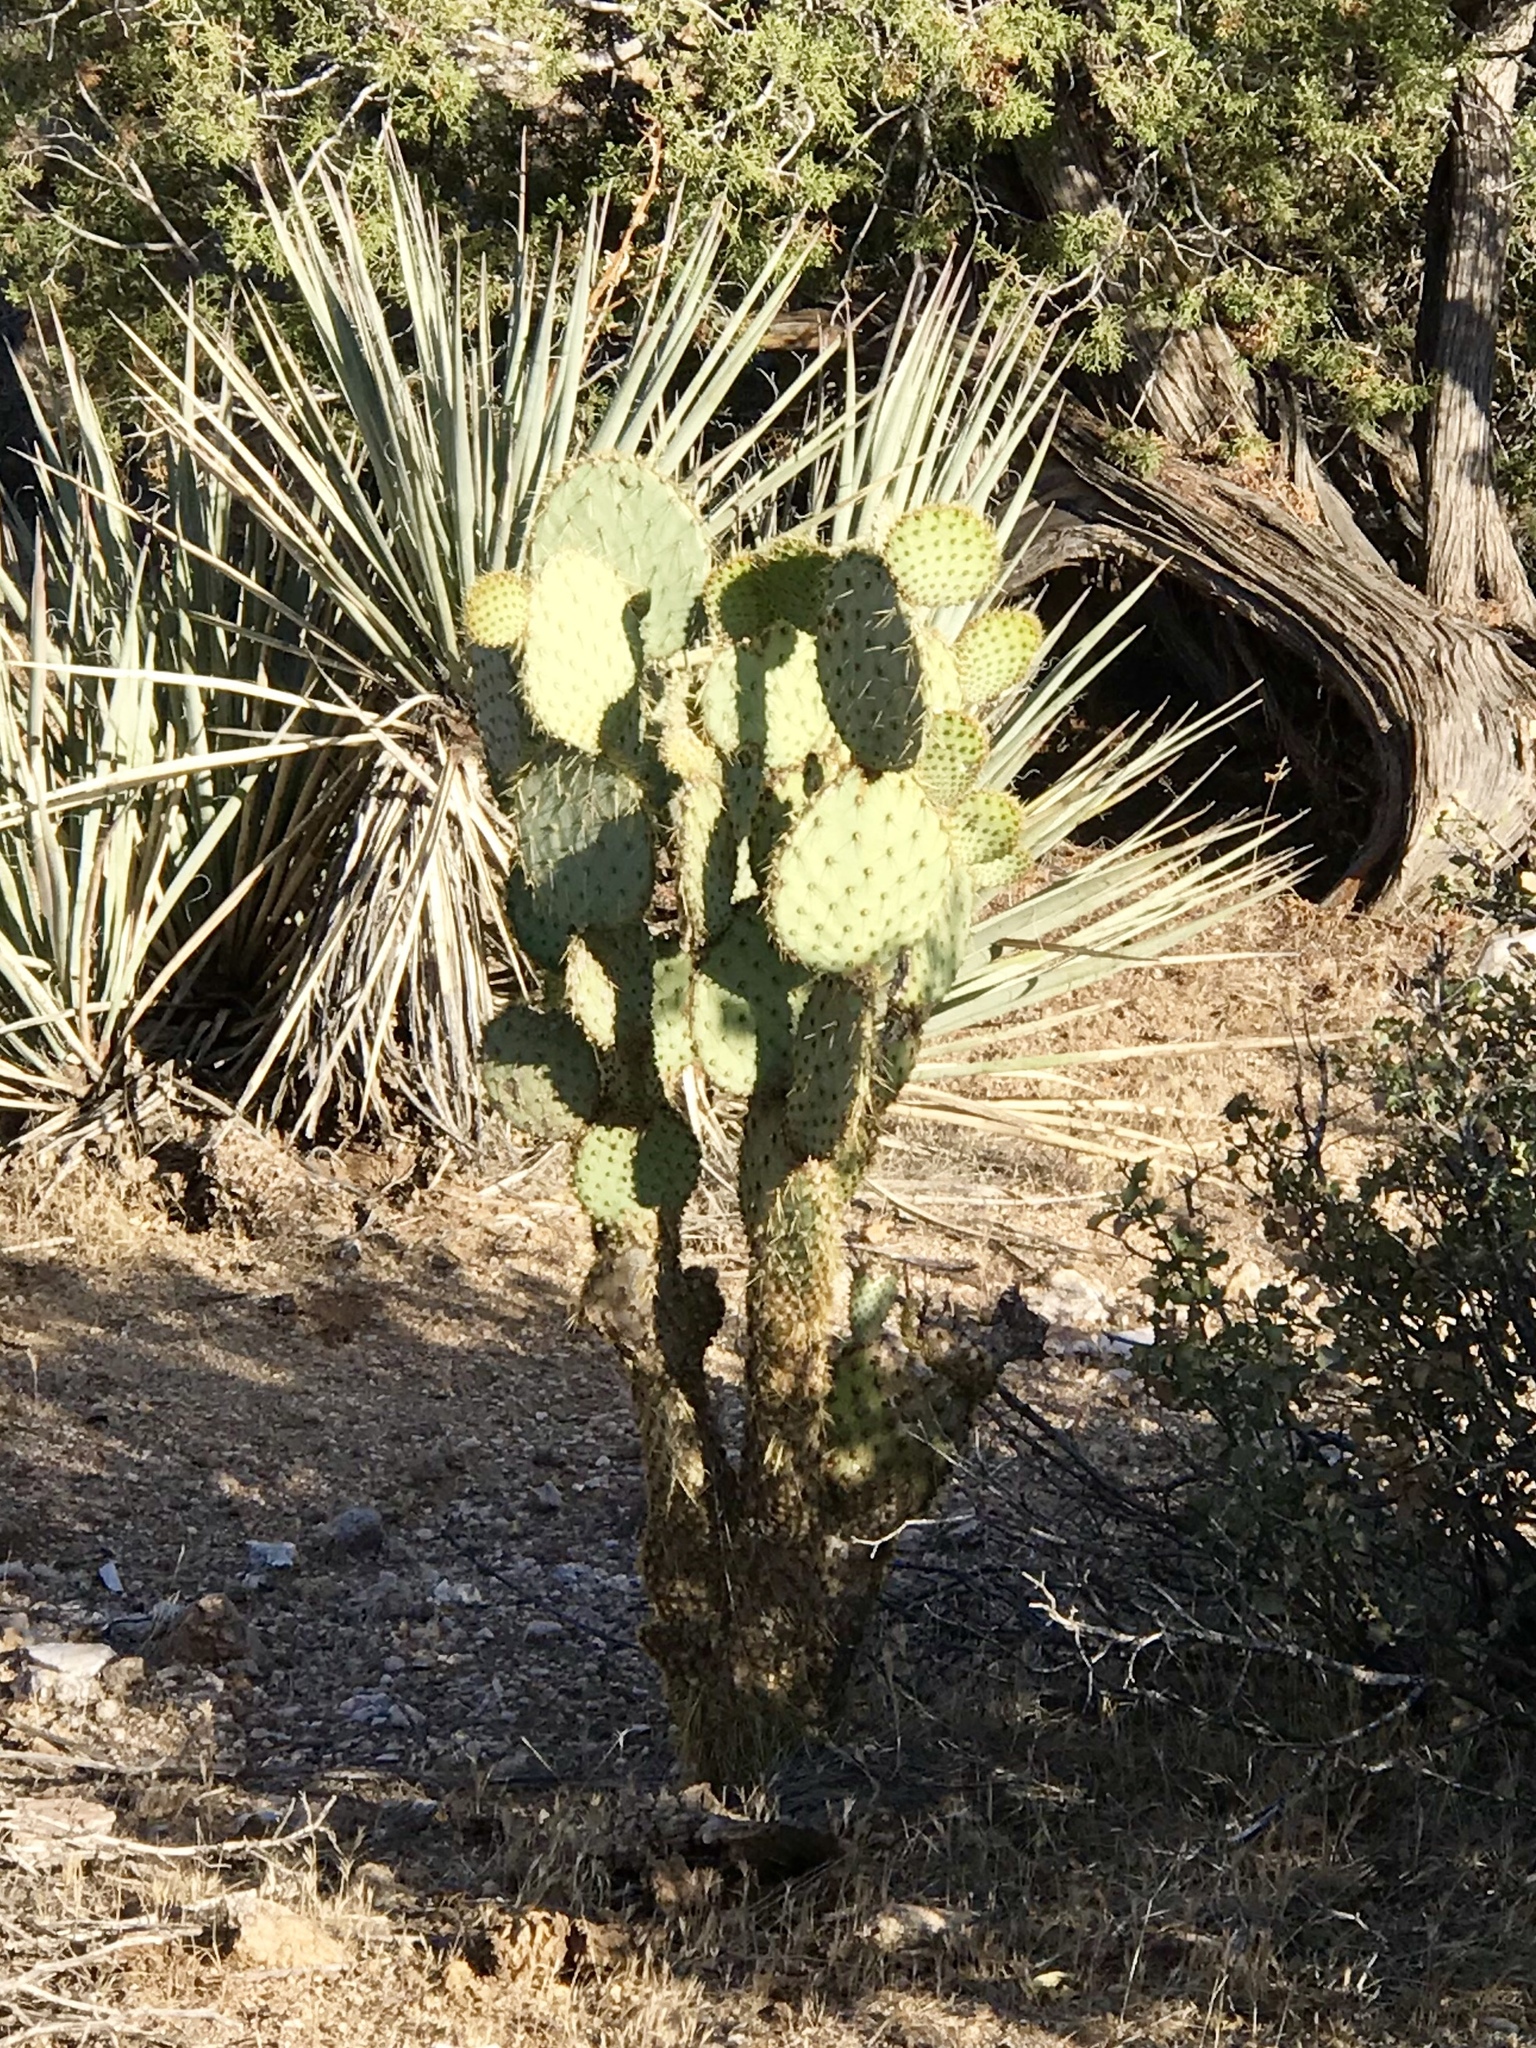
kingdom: Plantae
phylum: Tracheophyta
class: Magnoliopsida
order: Caryophyllales
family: Cactaceae
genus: Opuntia
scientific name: Opuntia chlorotica
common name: Dollar-joint prickly-pear
